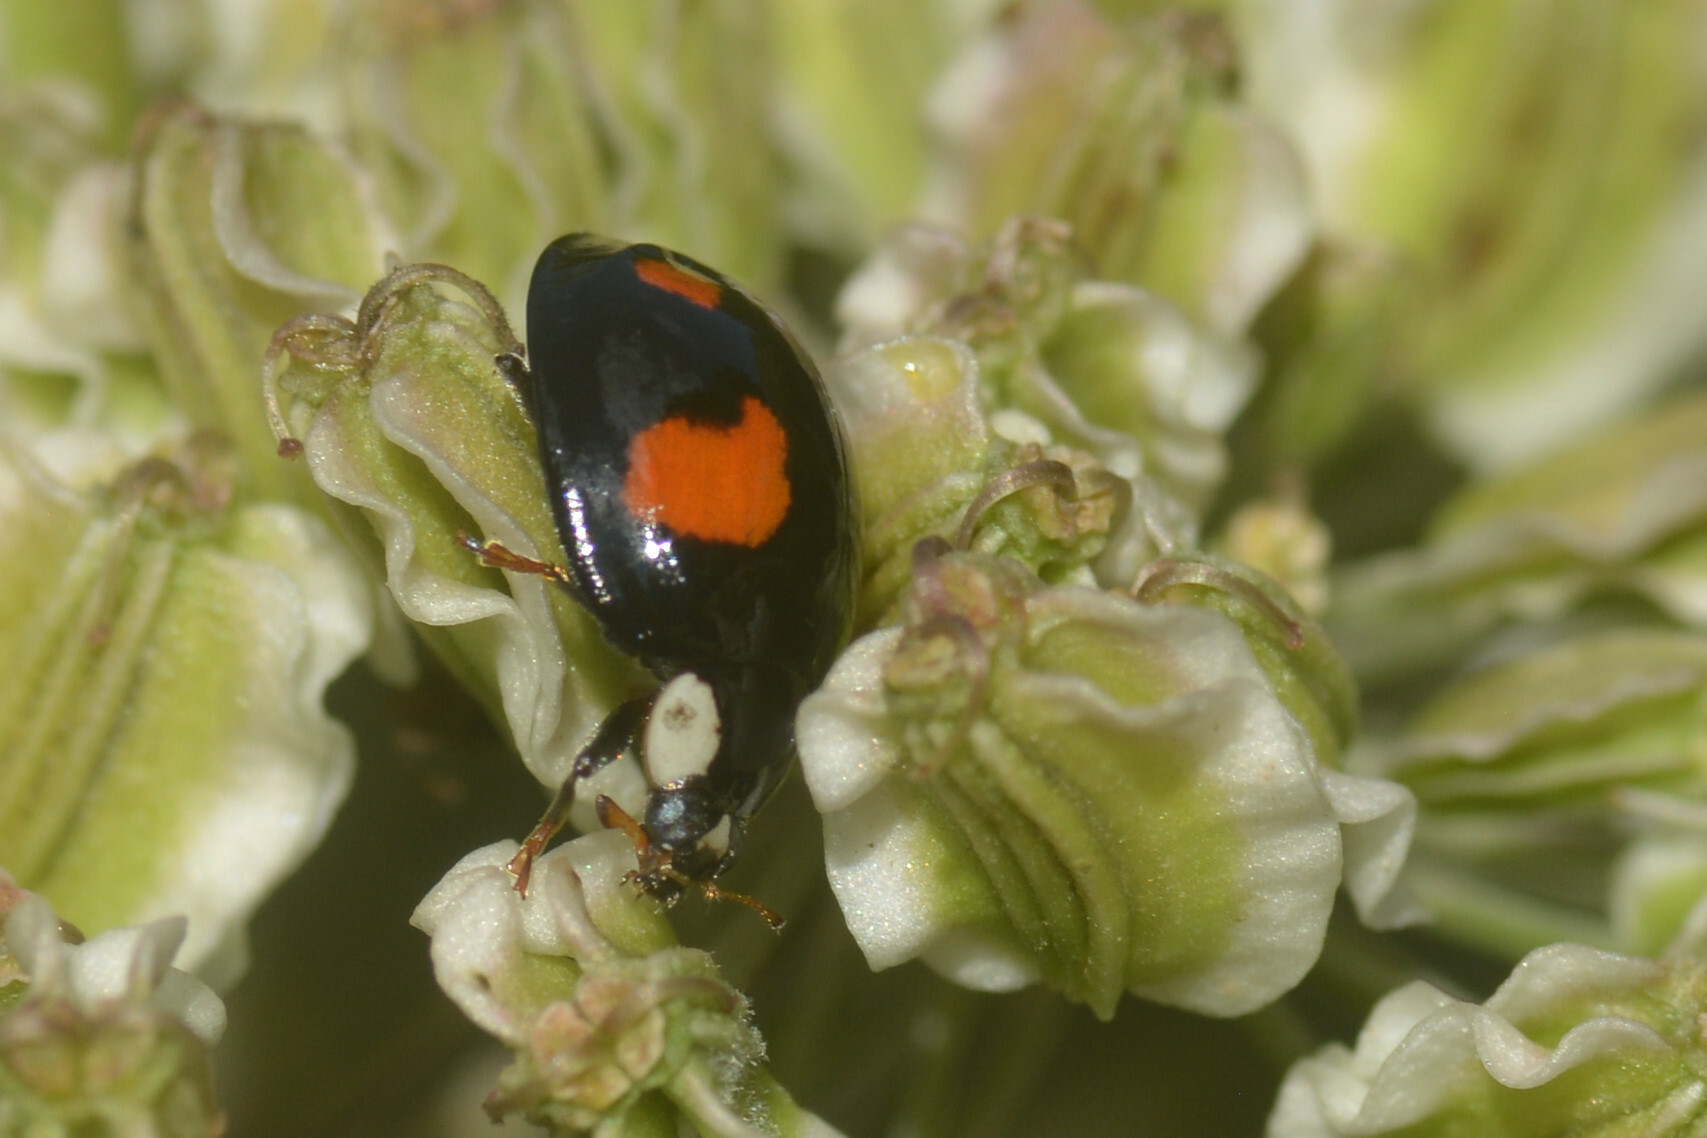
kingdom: Animalia
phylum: Arthropoda
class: Insecta
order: Coleoptera
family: Coccinellidae
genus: Harmonia
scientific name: Harmonia axyridis
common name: Harlequin ladybird
